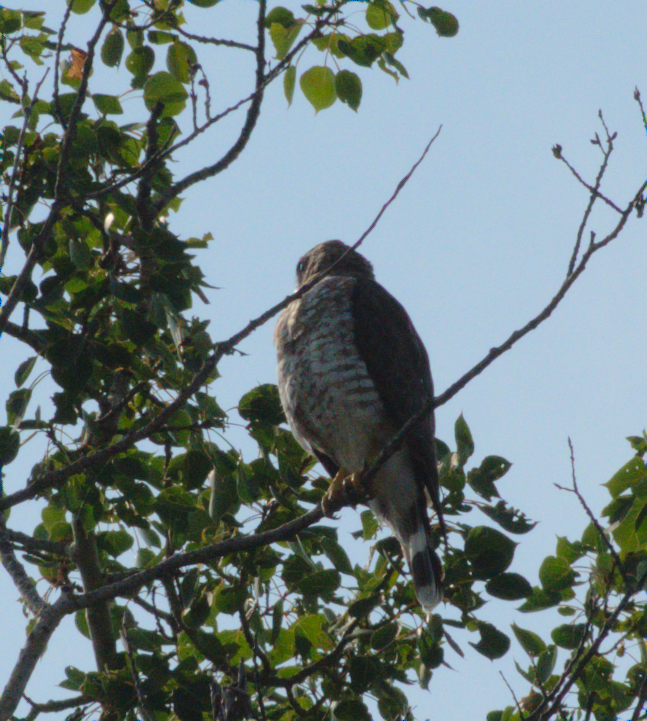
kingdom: Animalia
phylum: Chordata
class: Aves
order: Accipitriformes
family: Accipitridae
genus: Buteo
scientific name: Buteo platypterus
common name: Broad-winged hawk
